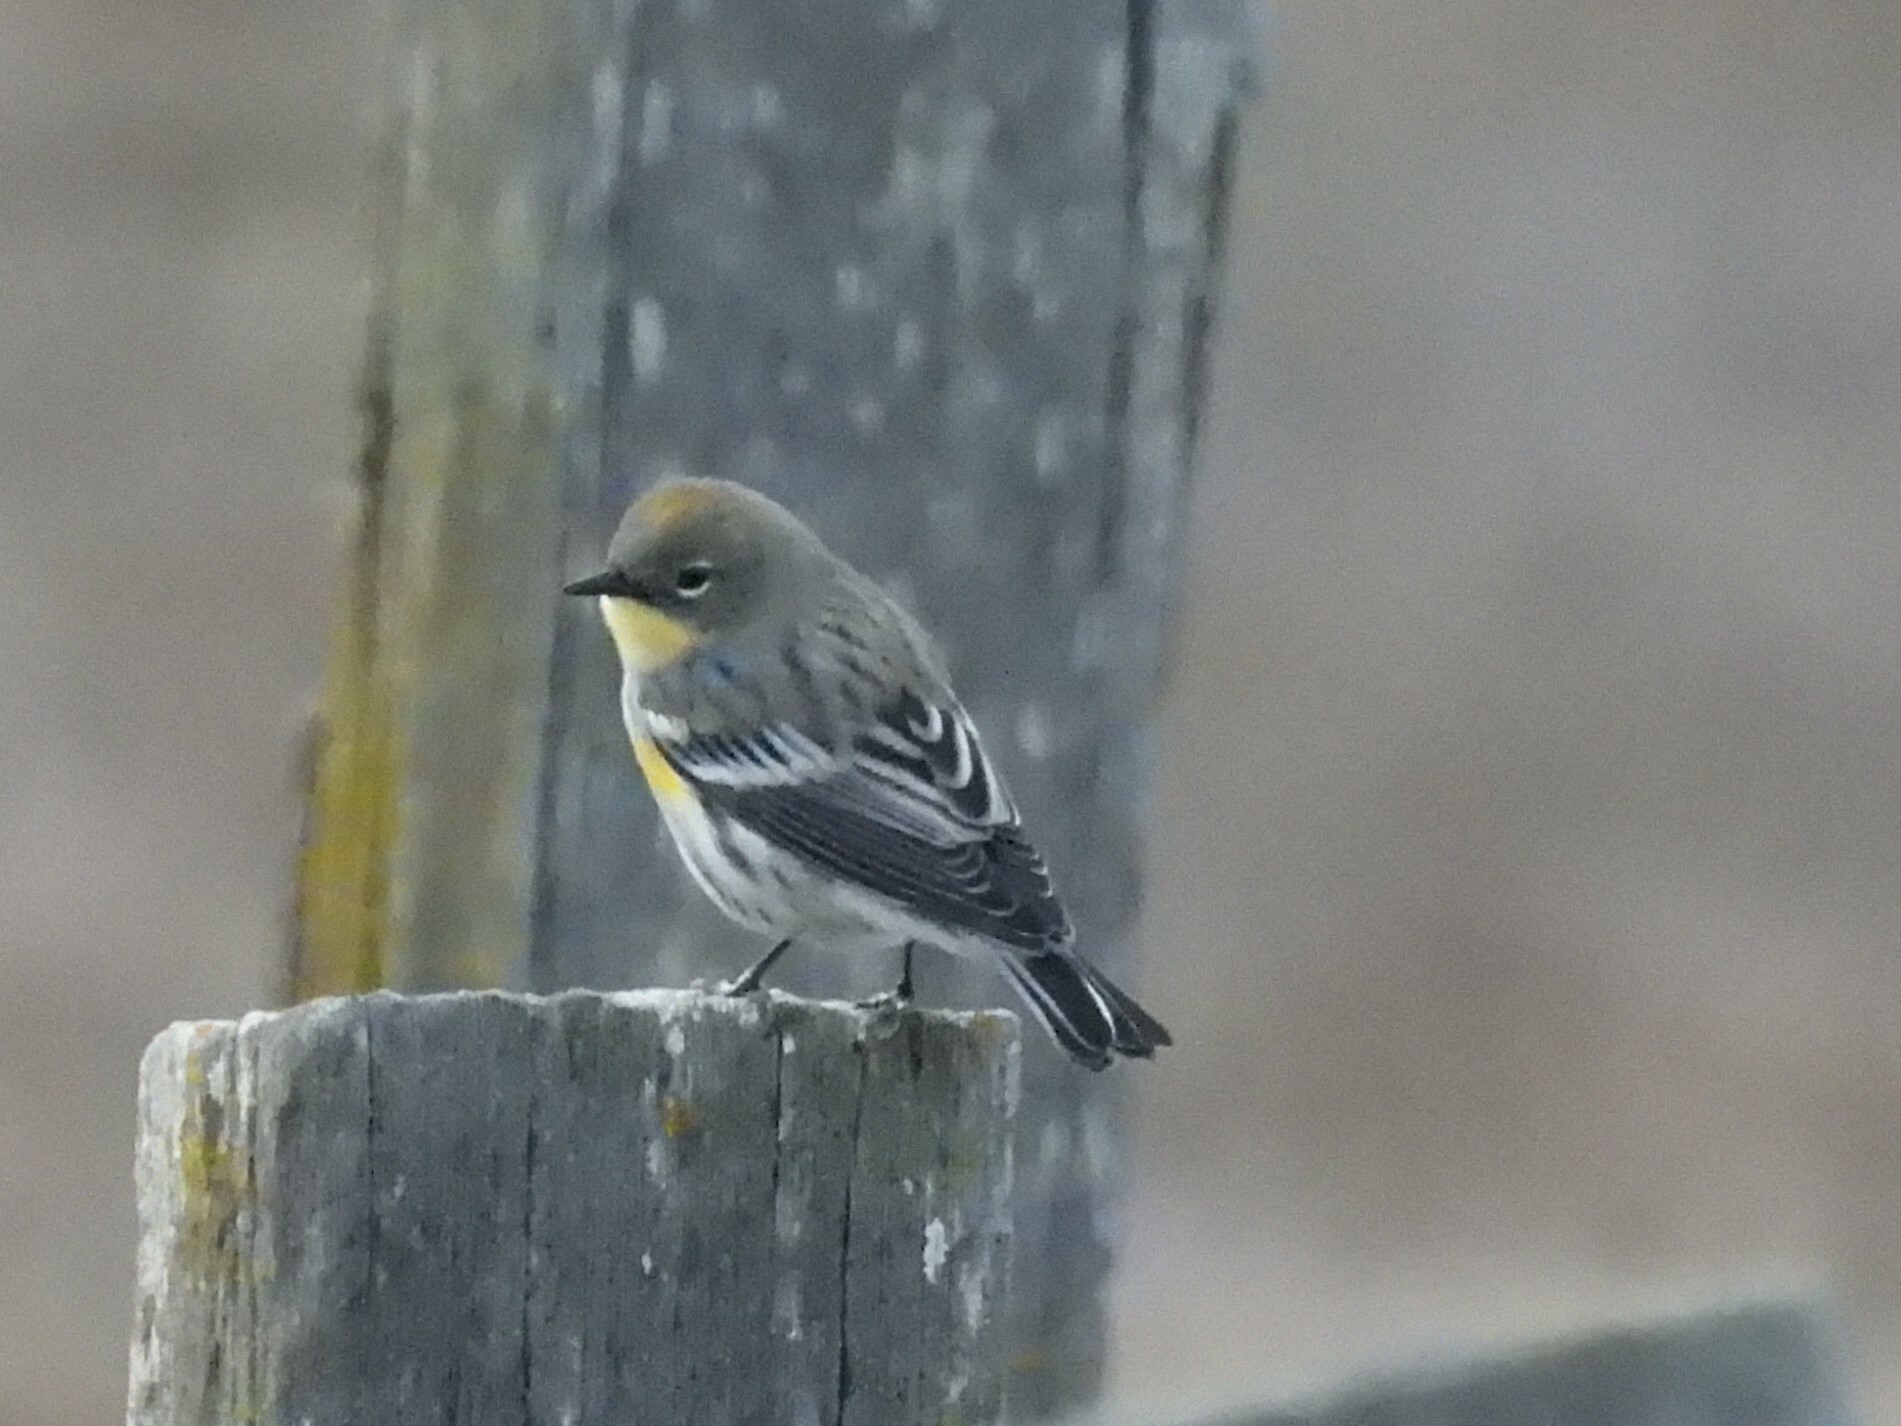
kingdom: Animalia
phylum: Chordata
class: Aves
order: Passeriformes
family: Parulidae
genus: Setophaga
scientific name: Setophaga coronata
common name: Myrtle warbler
